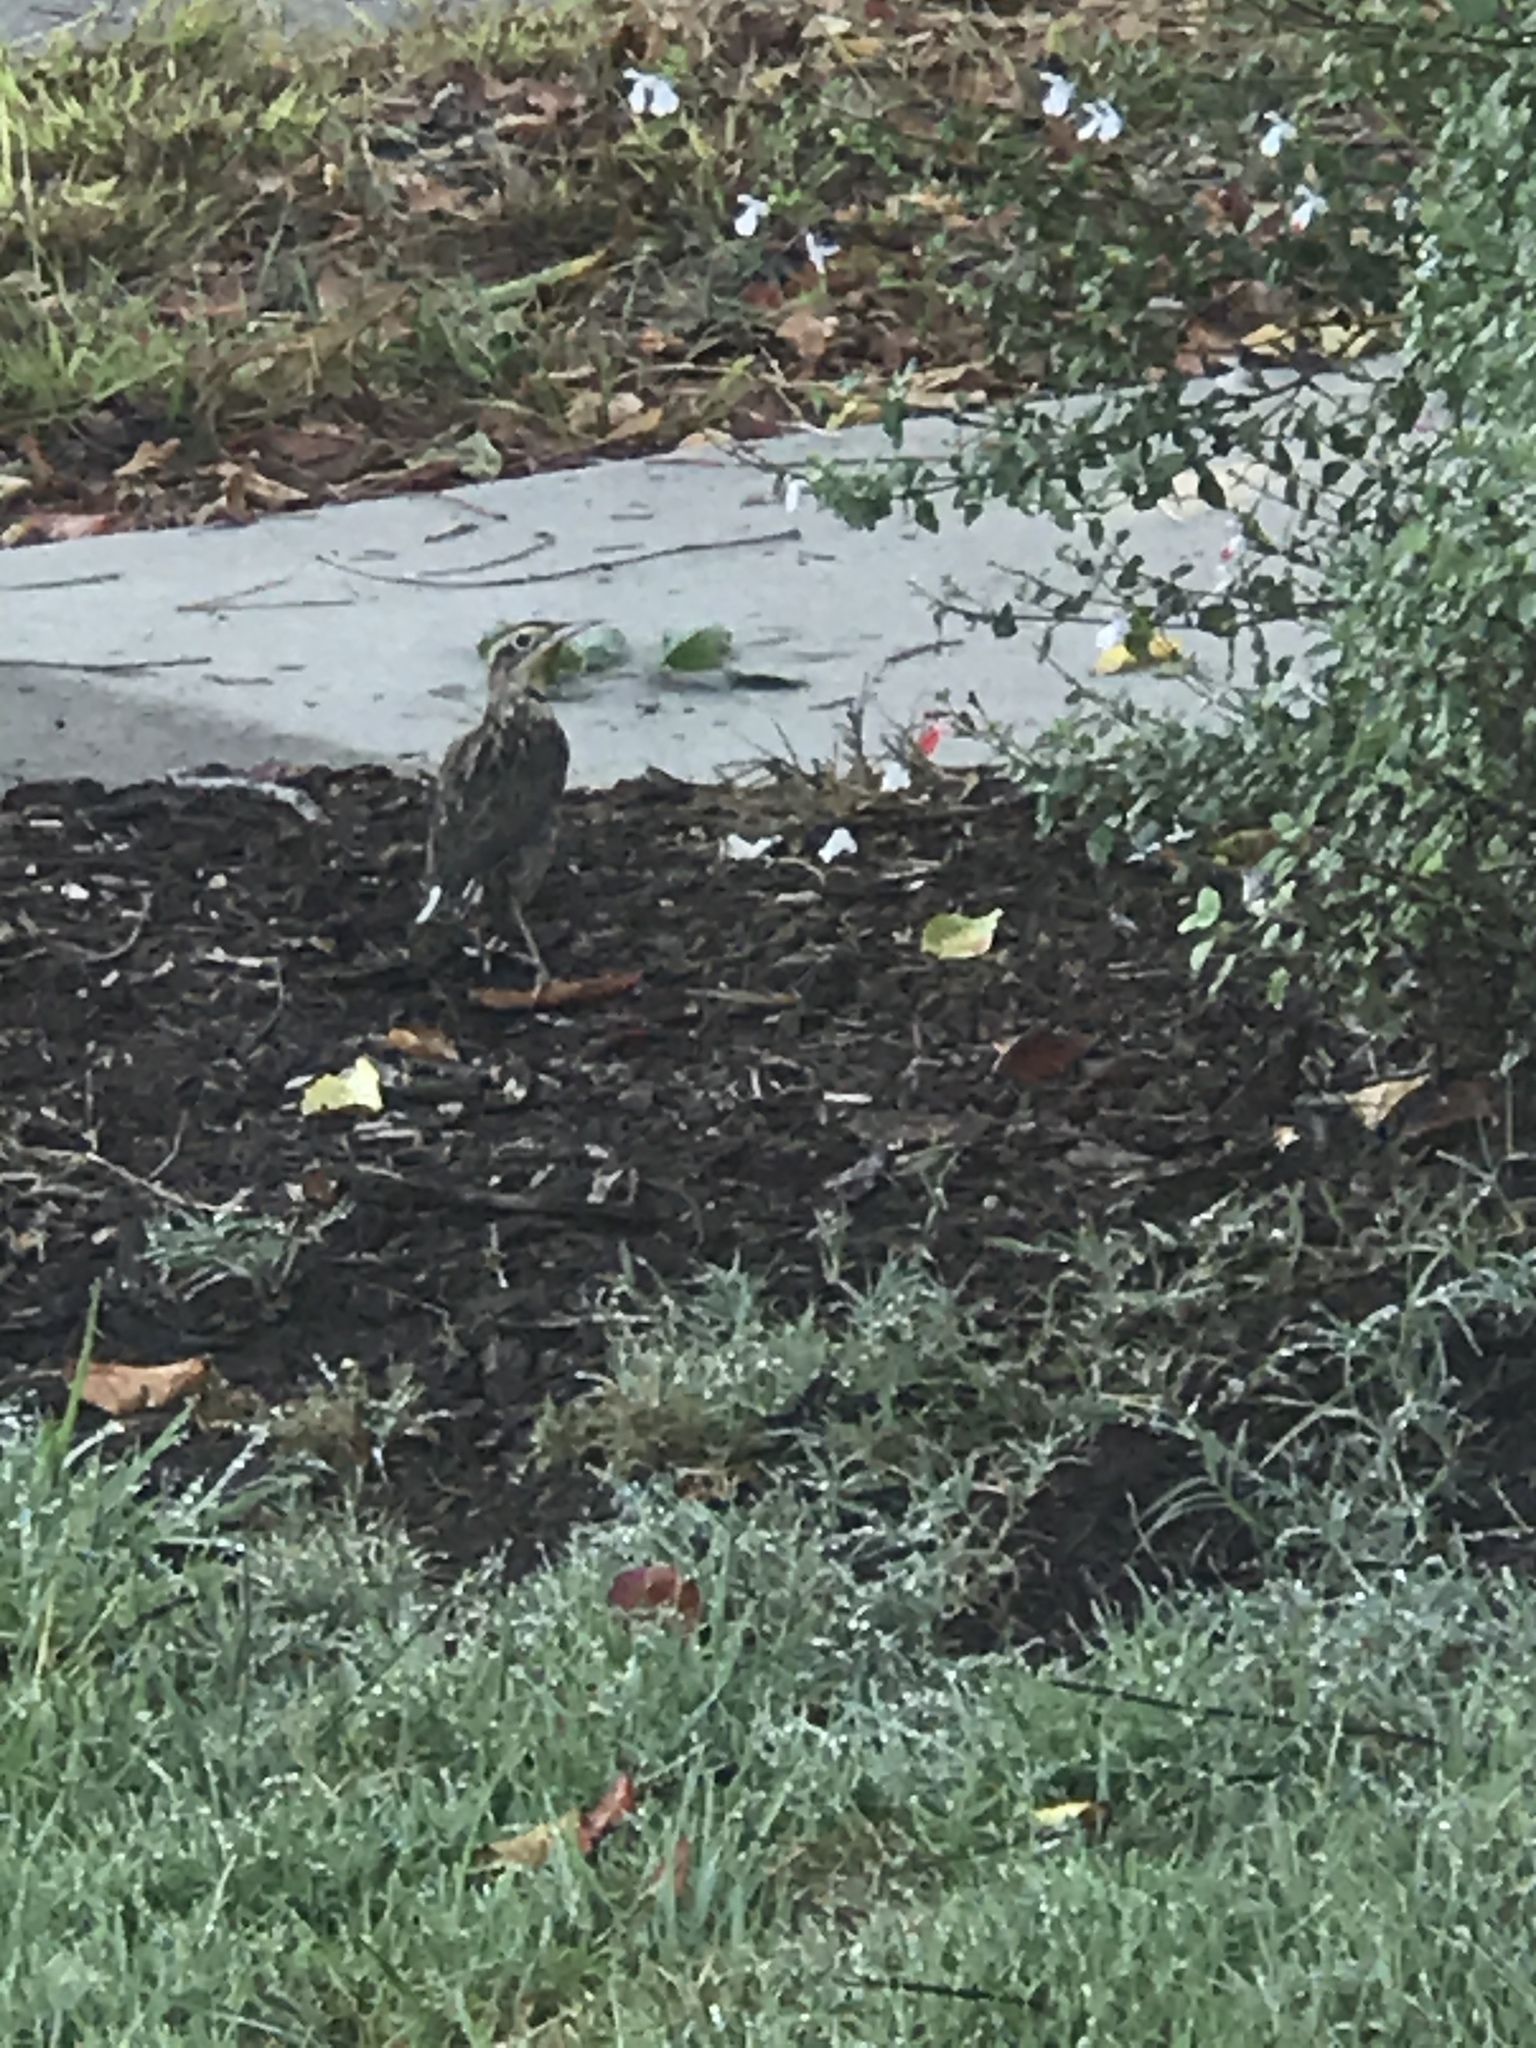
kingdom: Animalia
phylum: Chordata
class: Aves
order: Passeriformes
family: Icteridae
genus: Sturnella
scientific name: Sturnella neglecta
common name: Western meadowlark
